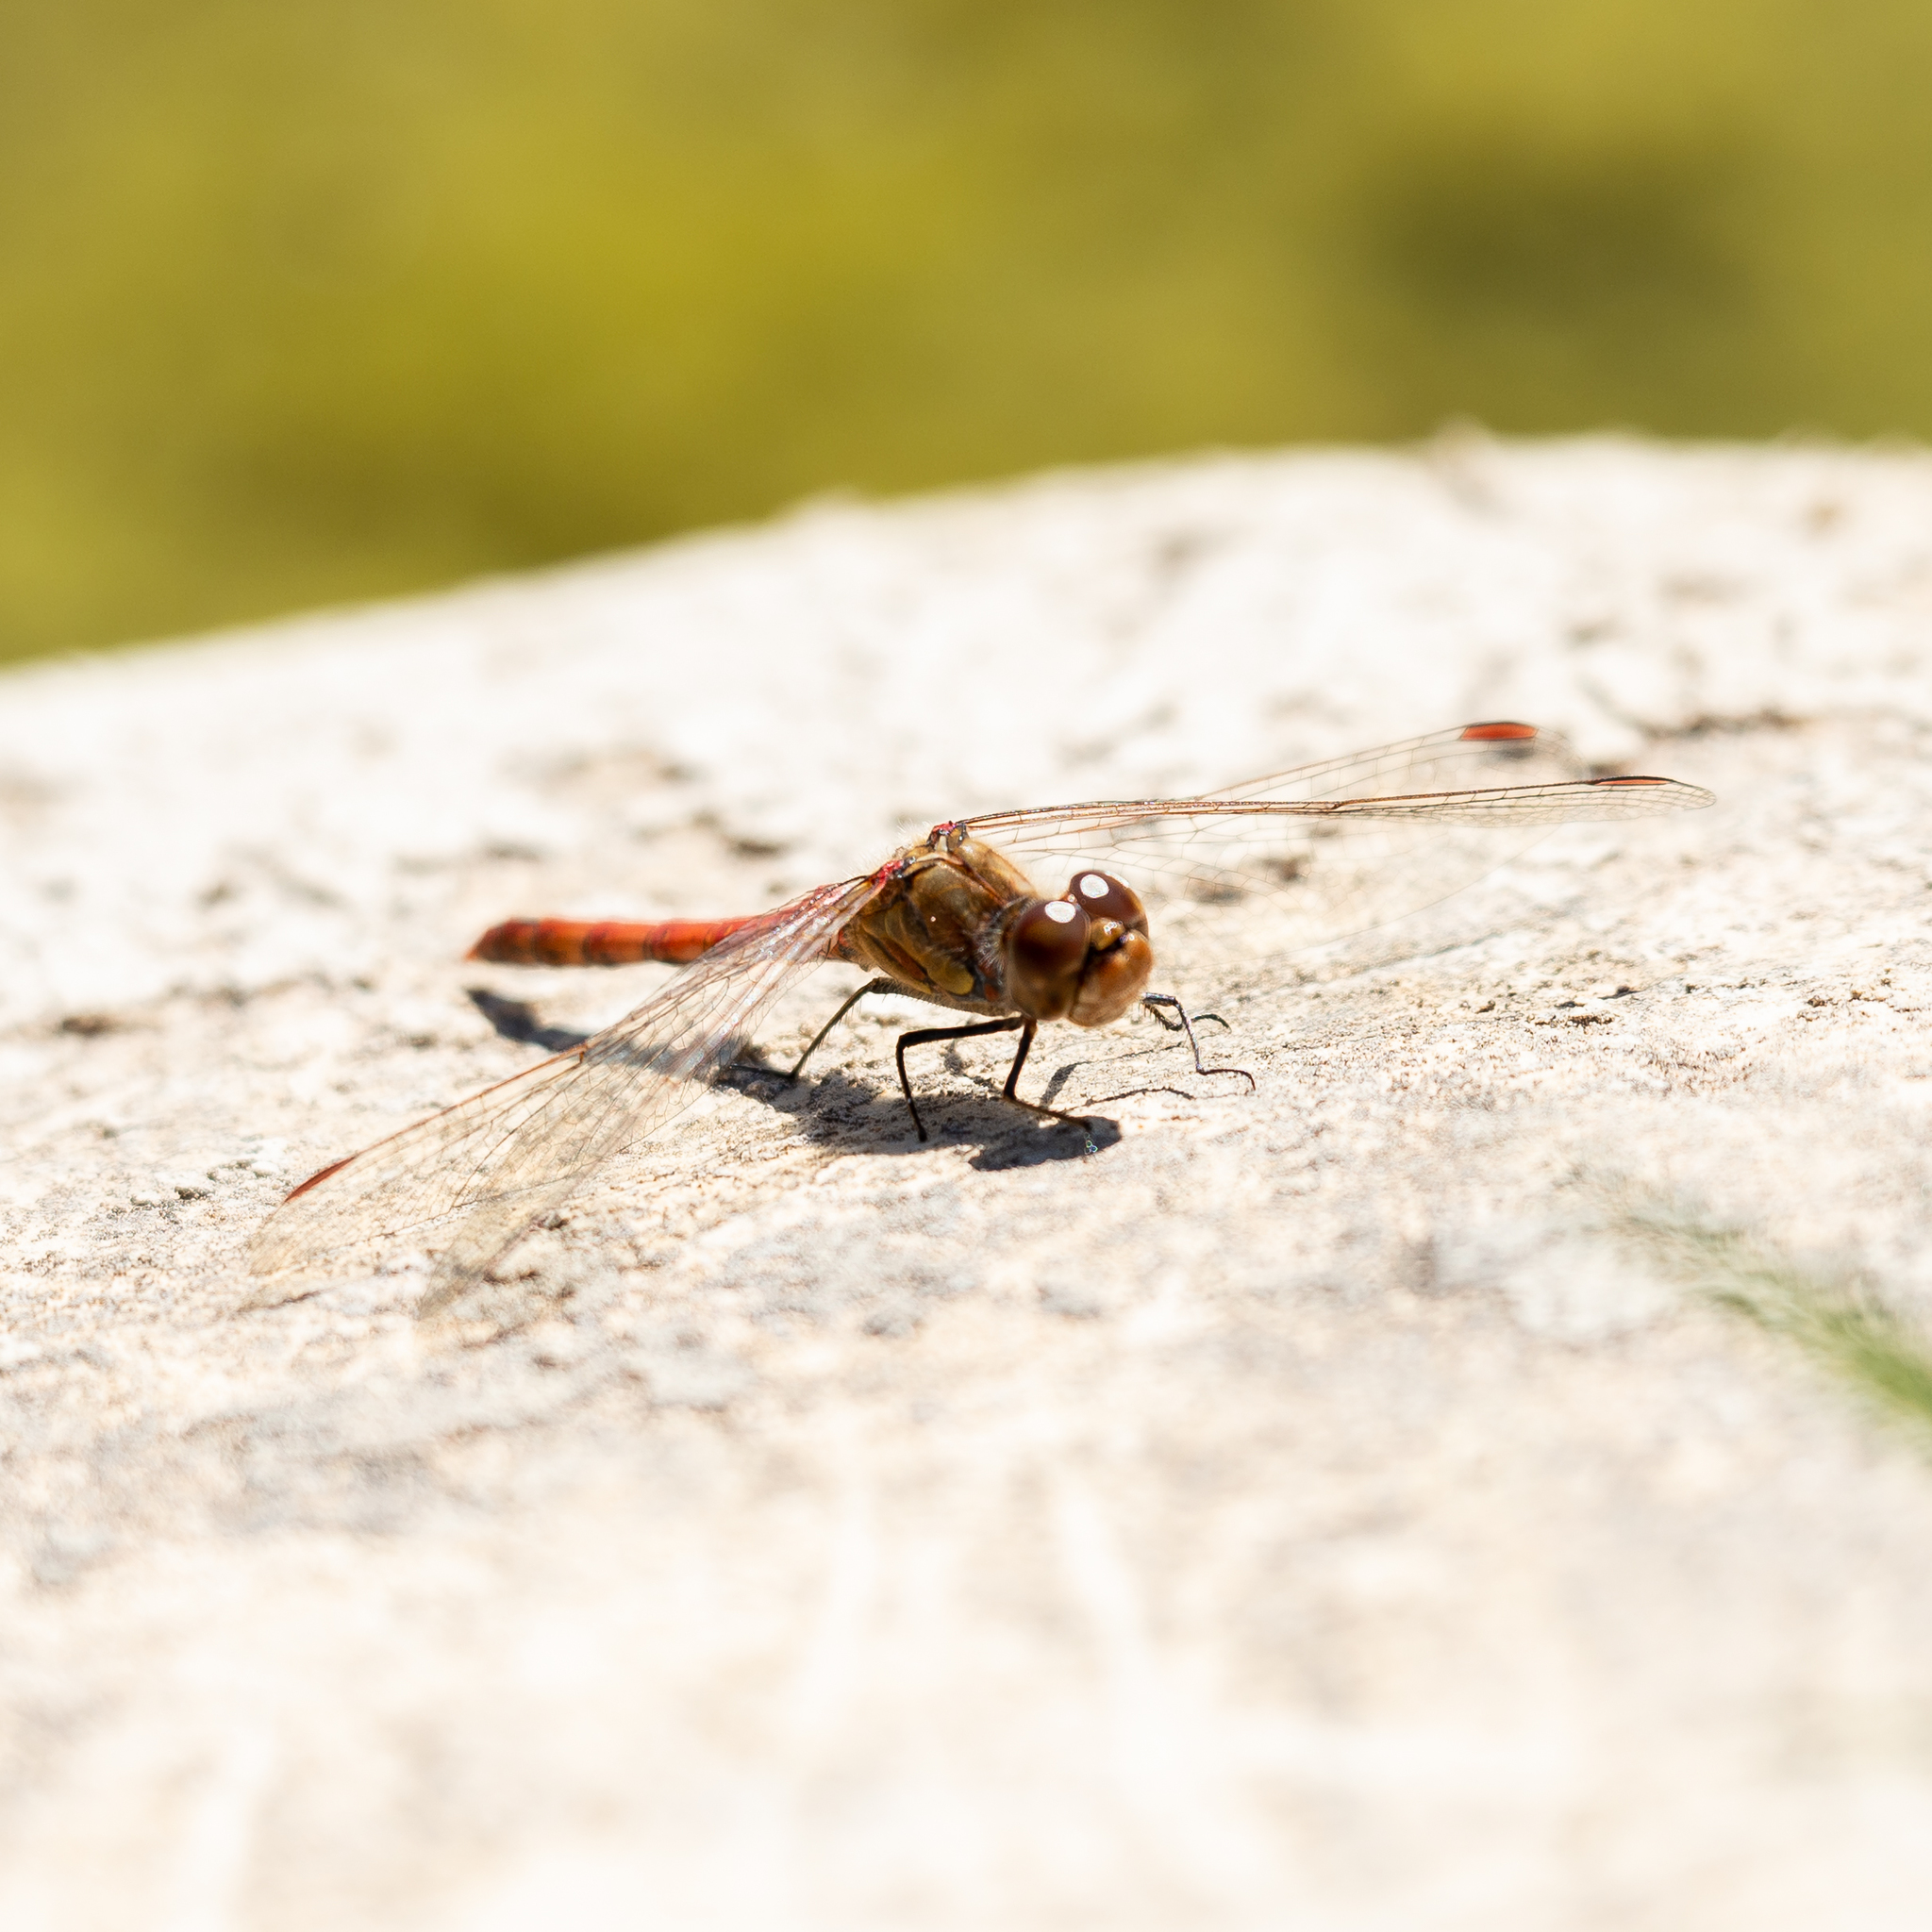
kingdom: Animalia
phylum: Arthropoda
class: Insecta
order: Odonata
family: Libellulidae
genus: Sympetrum
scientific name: Sympetrum striolatum
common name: Common darter
